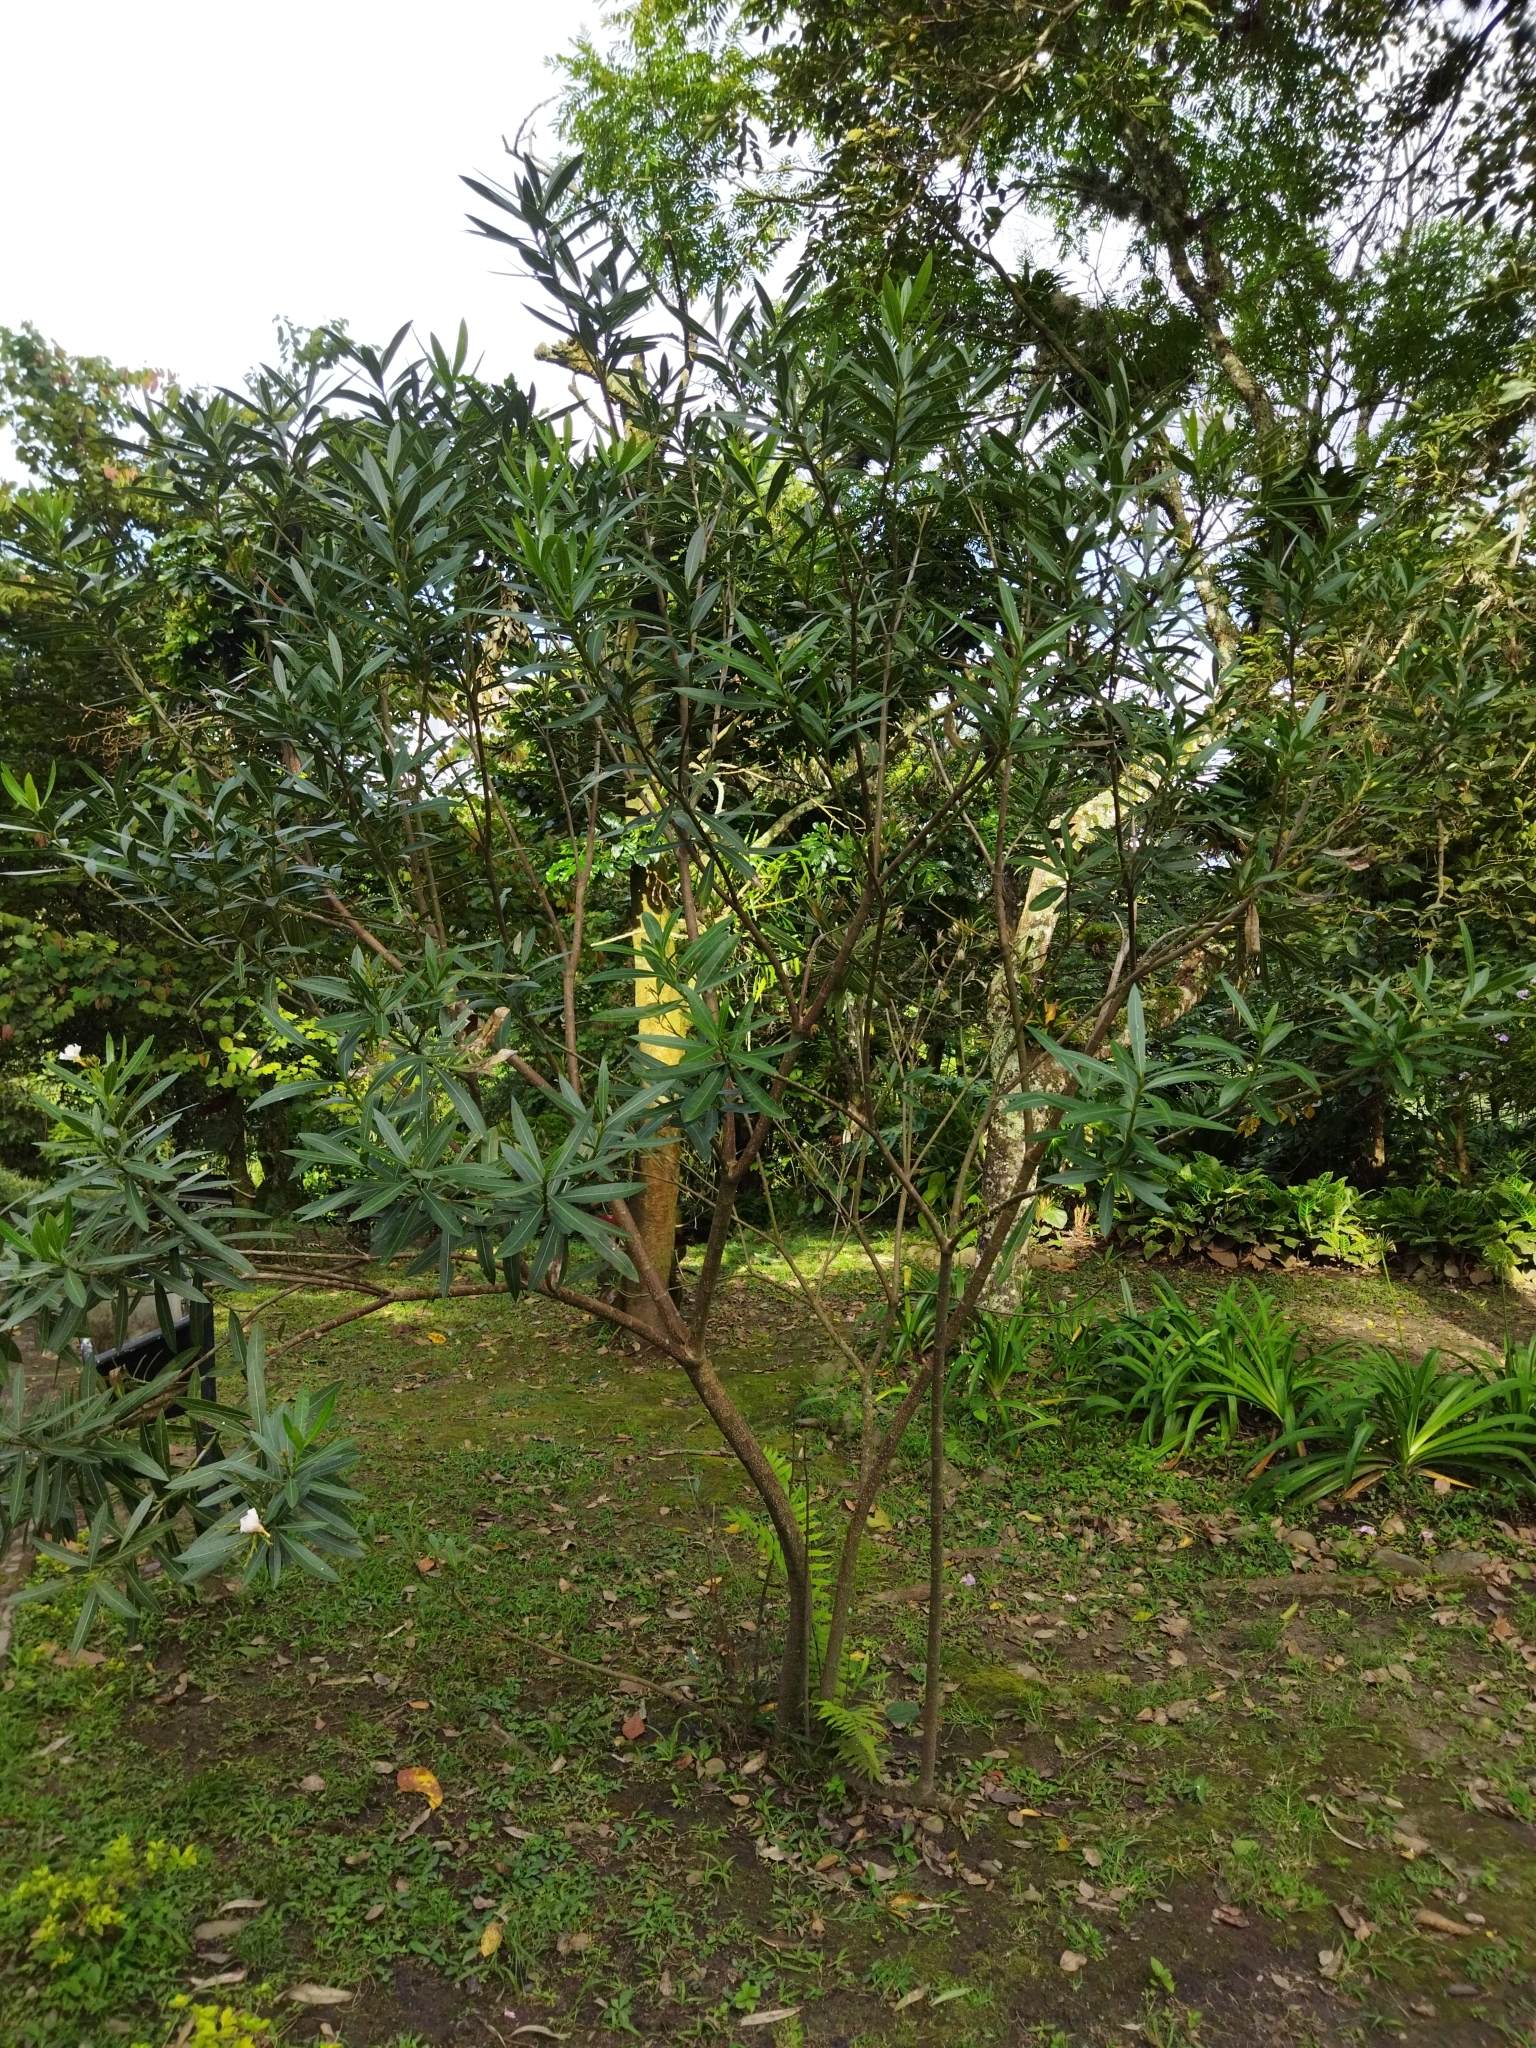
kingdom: Plantae
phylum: Tracheophyta
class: Magnoliopsida
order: Gentianales
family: Apocynaceae
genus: Nerium
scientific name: Nerium oleander
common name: Oleander
